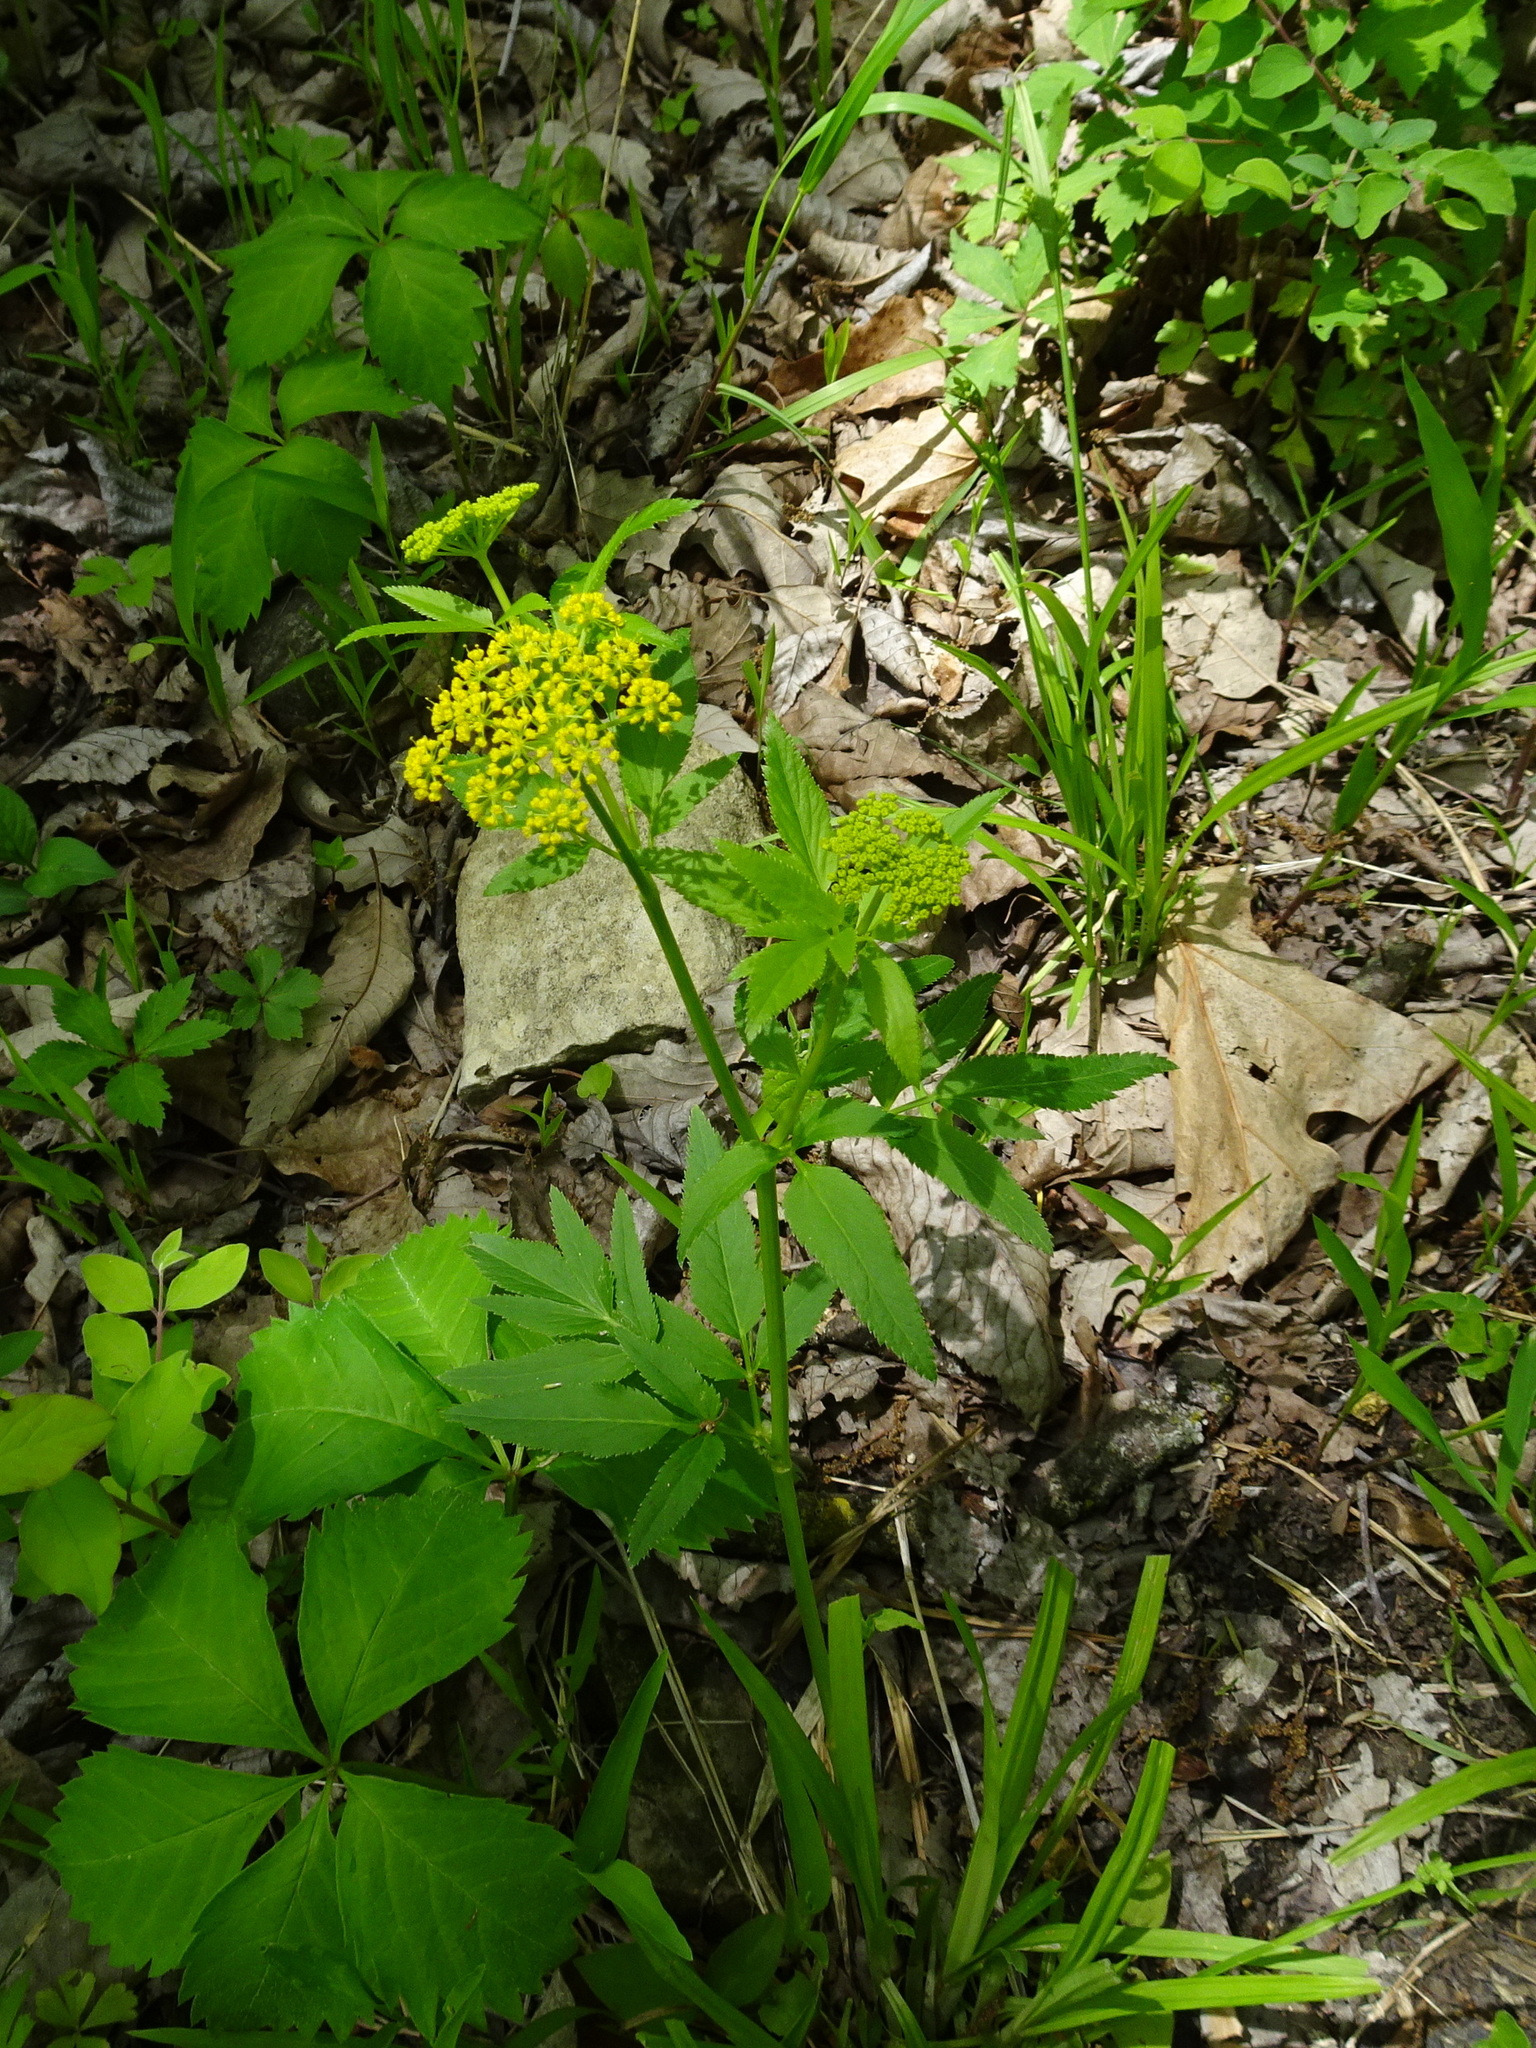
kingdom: Plantae
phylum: Tracheophyta
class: Magnoliopsida
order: Apiales
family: Apiaceae
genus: Zizia
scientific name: Zizia aurea
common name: Golden alexanders
